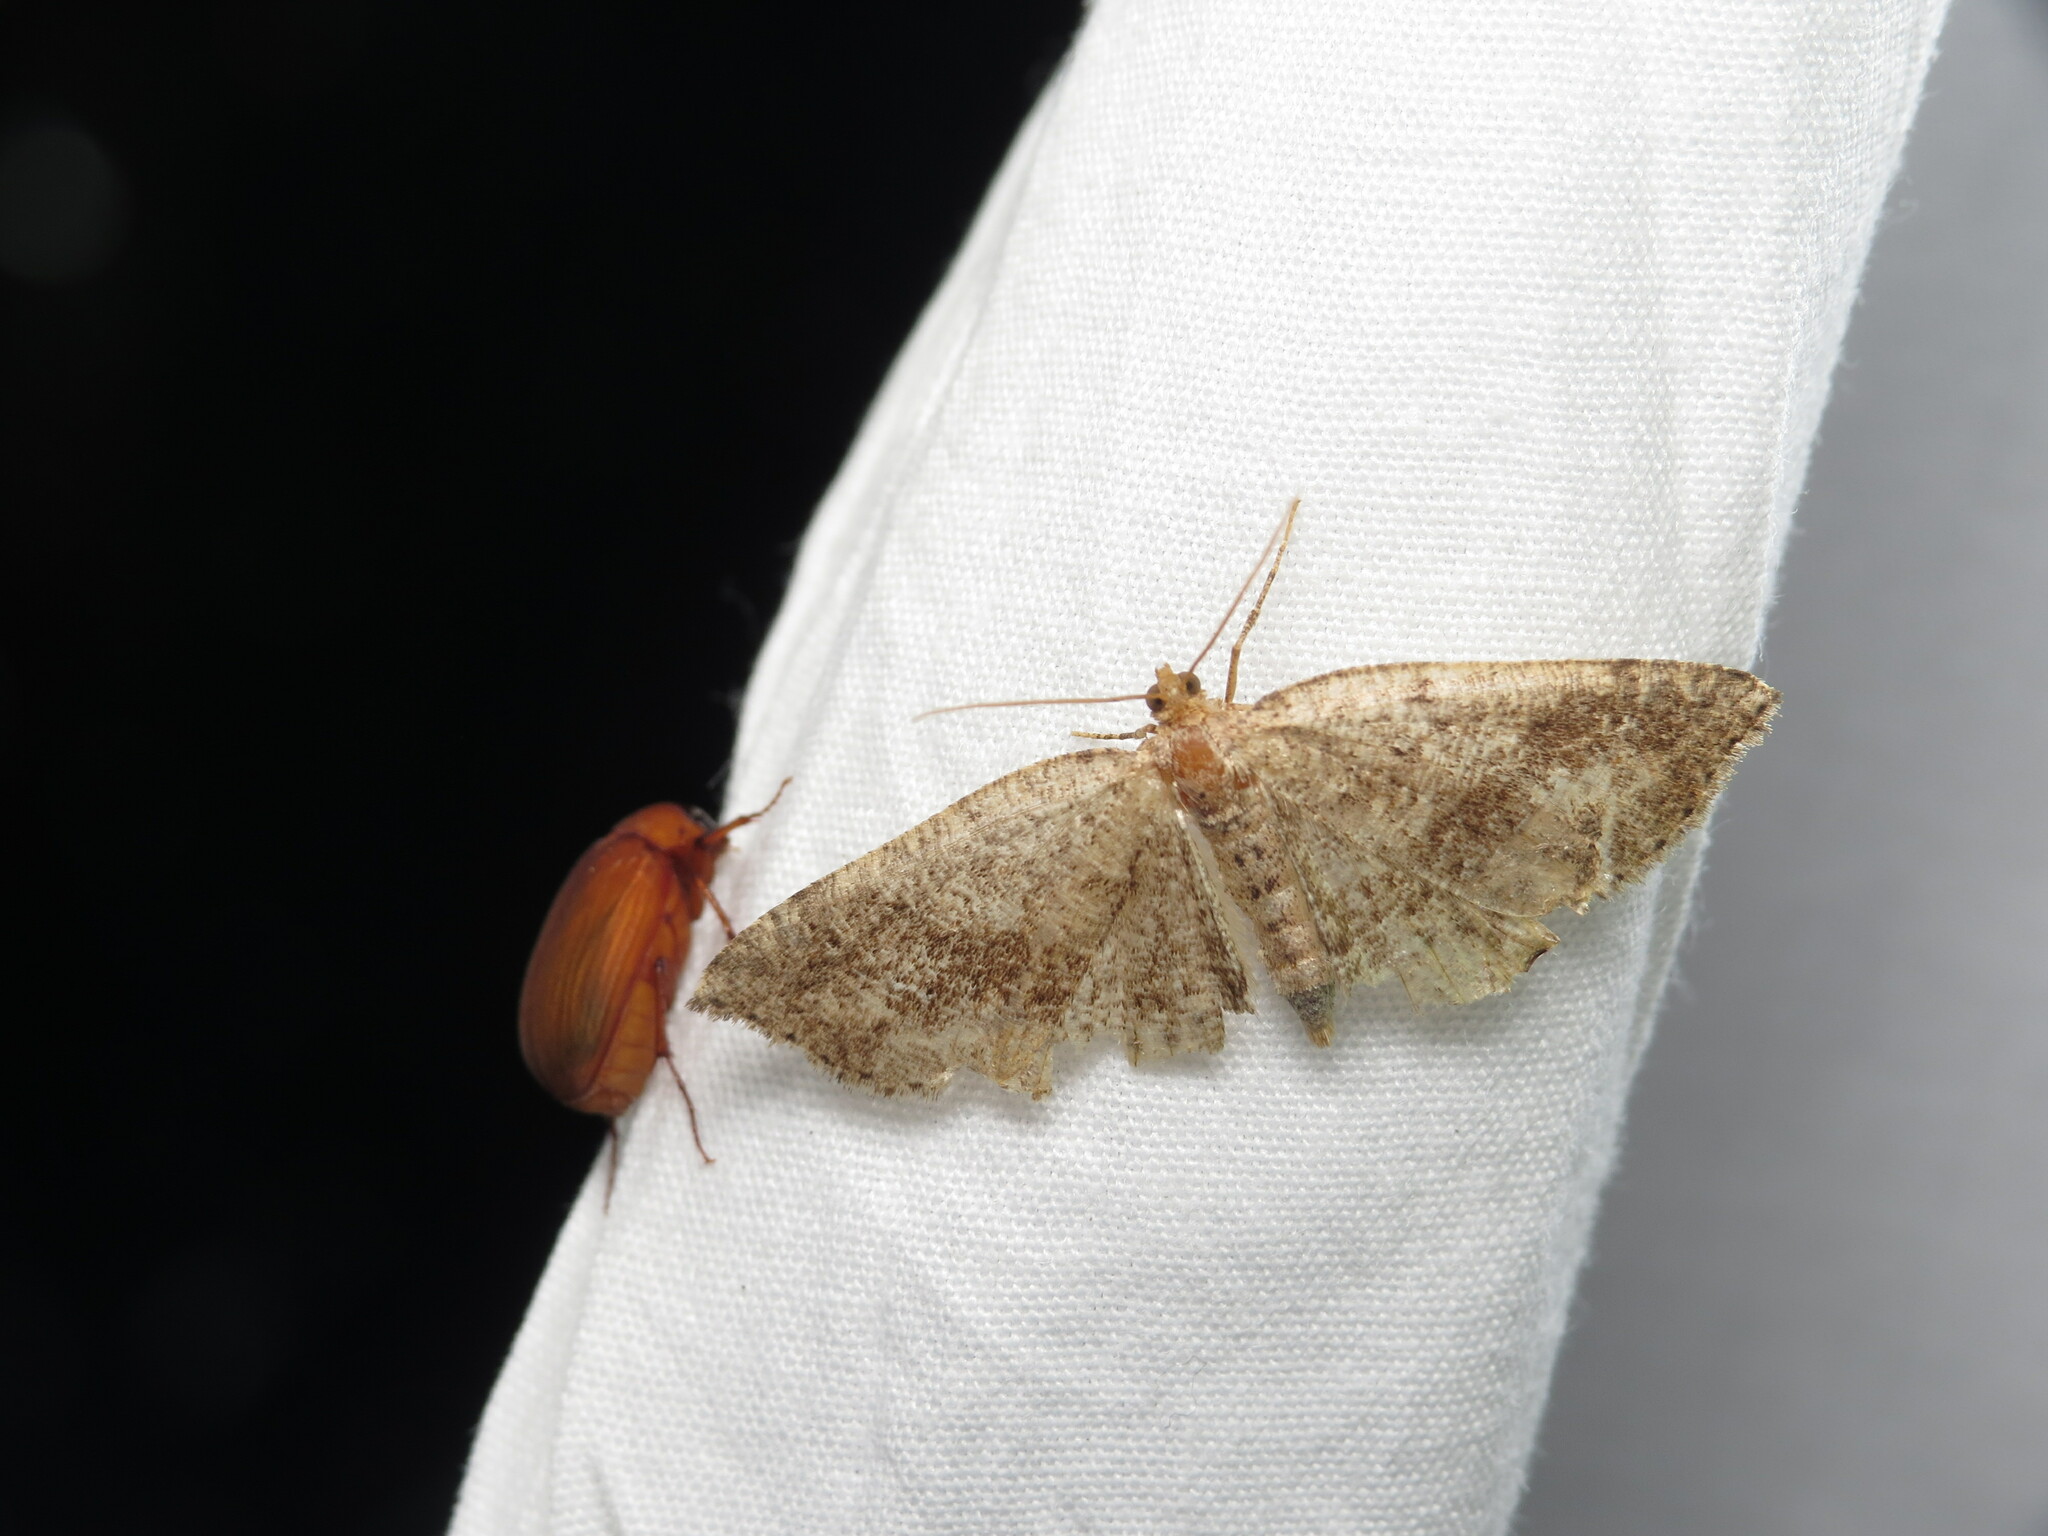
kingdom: Animalia
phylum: Arthropoda
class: Insecta
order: Lepidoptera
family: Geometridae
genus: Homochlodes
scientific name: Homochlodes fritillaria
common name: Pale homochlodes
